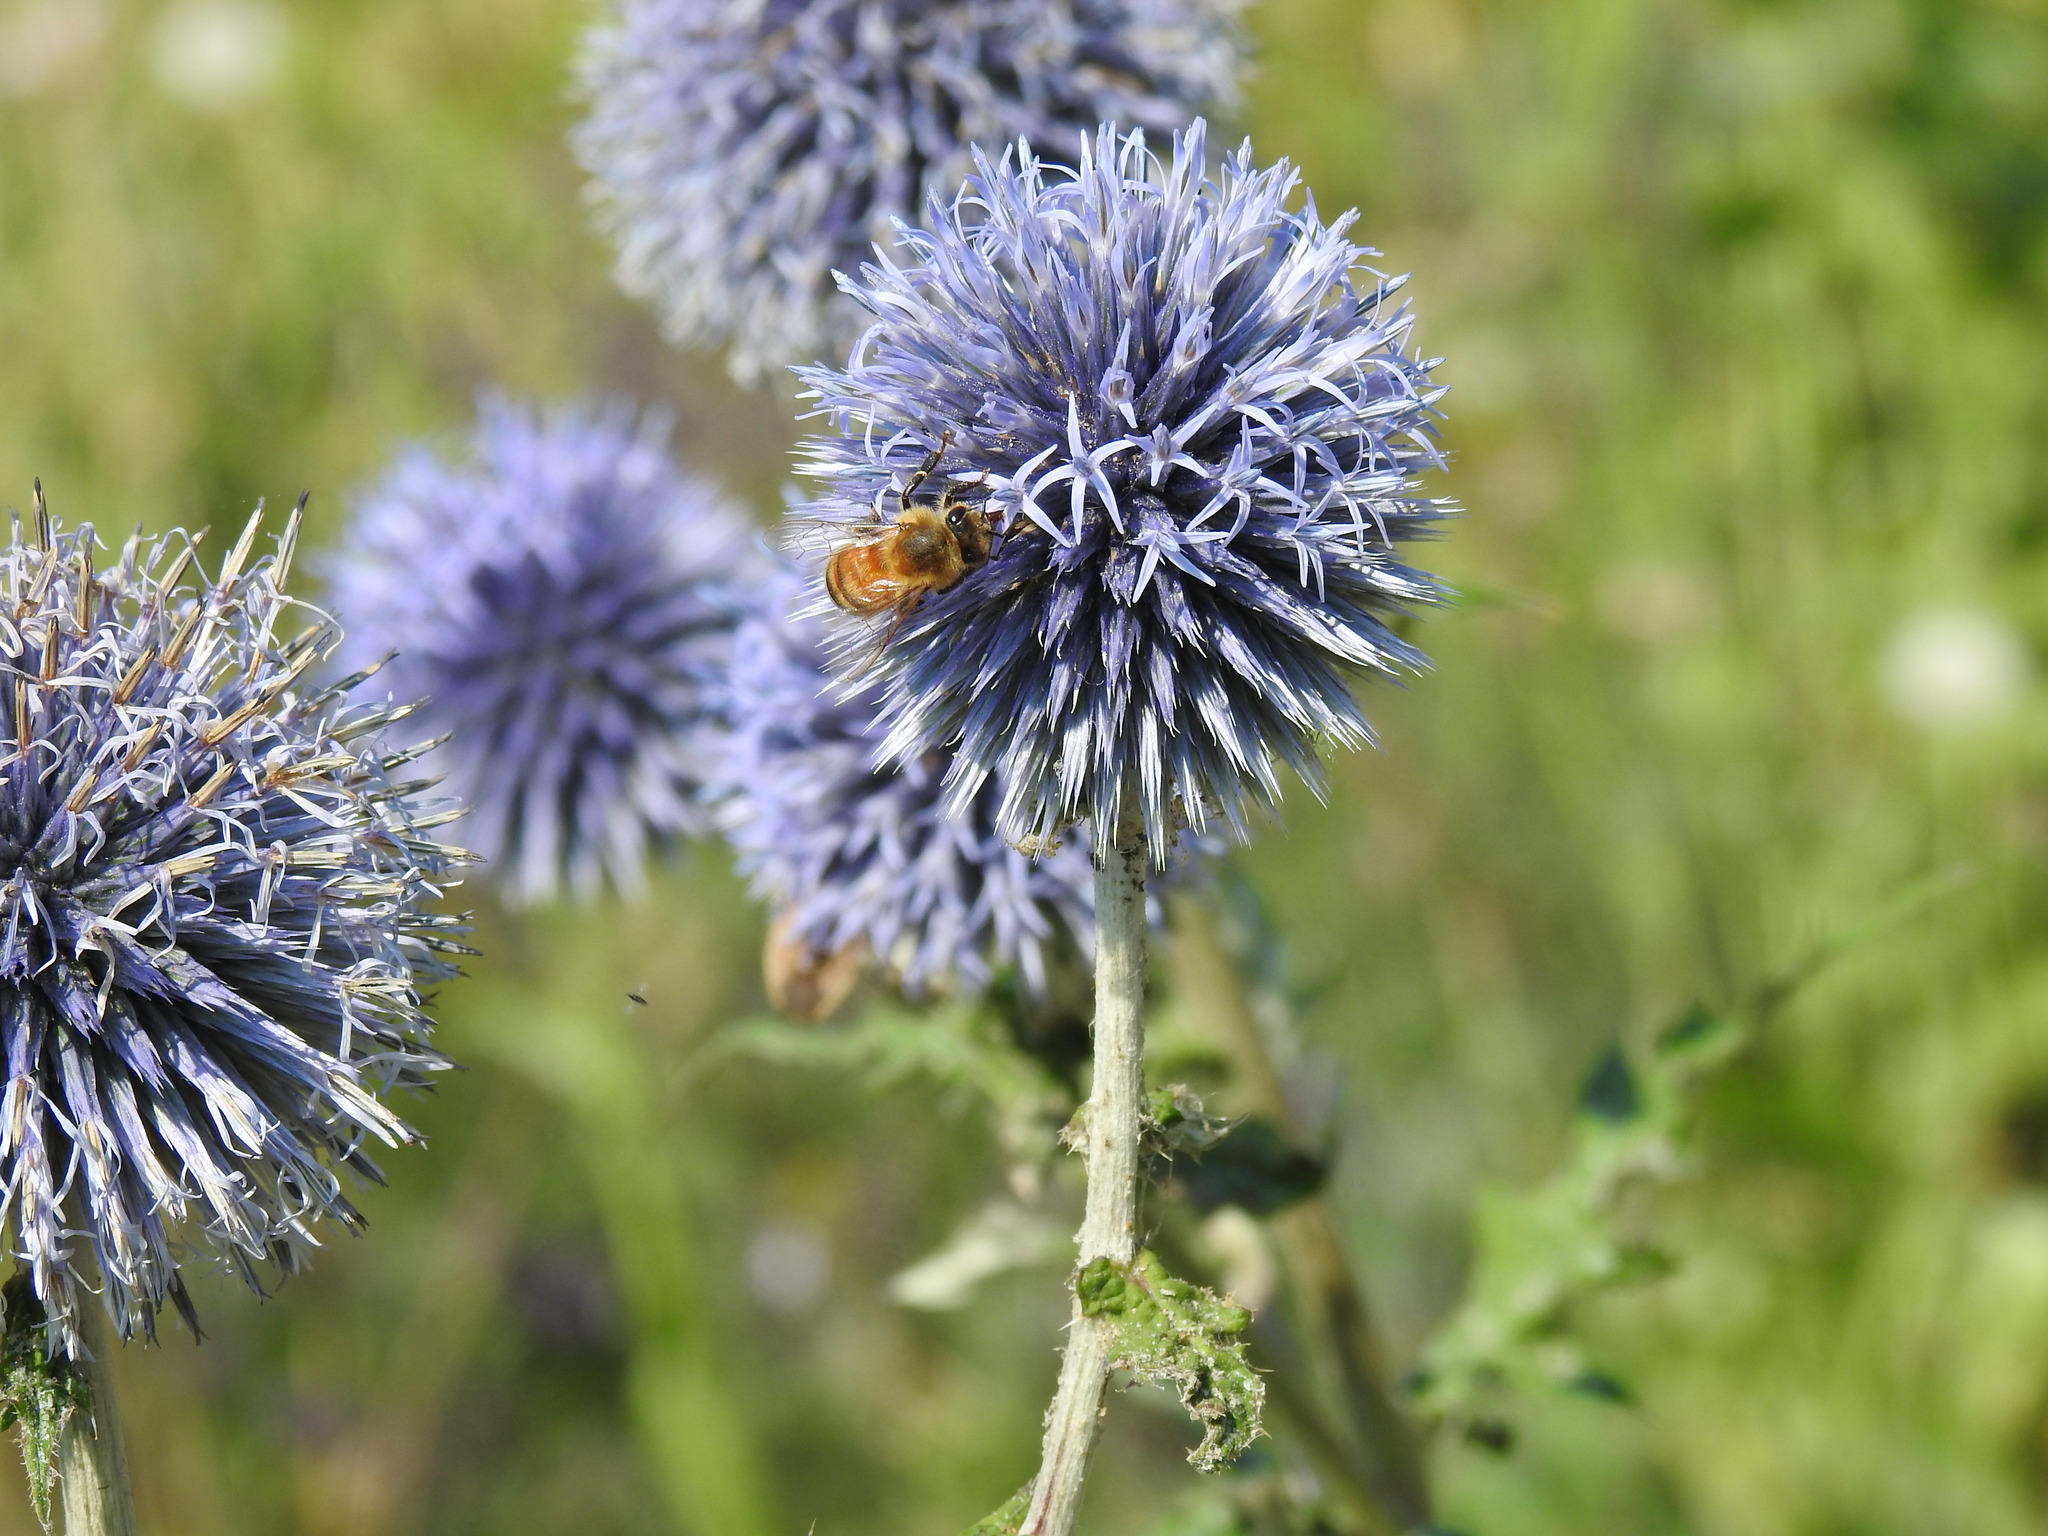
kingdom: Animalia
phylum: Arthropoda
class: Insecta
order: Hymenoptera
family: Apidae
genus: Apis
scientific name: Apis mellifera
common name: Honey bee
